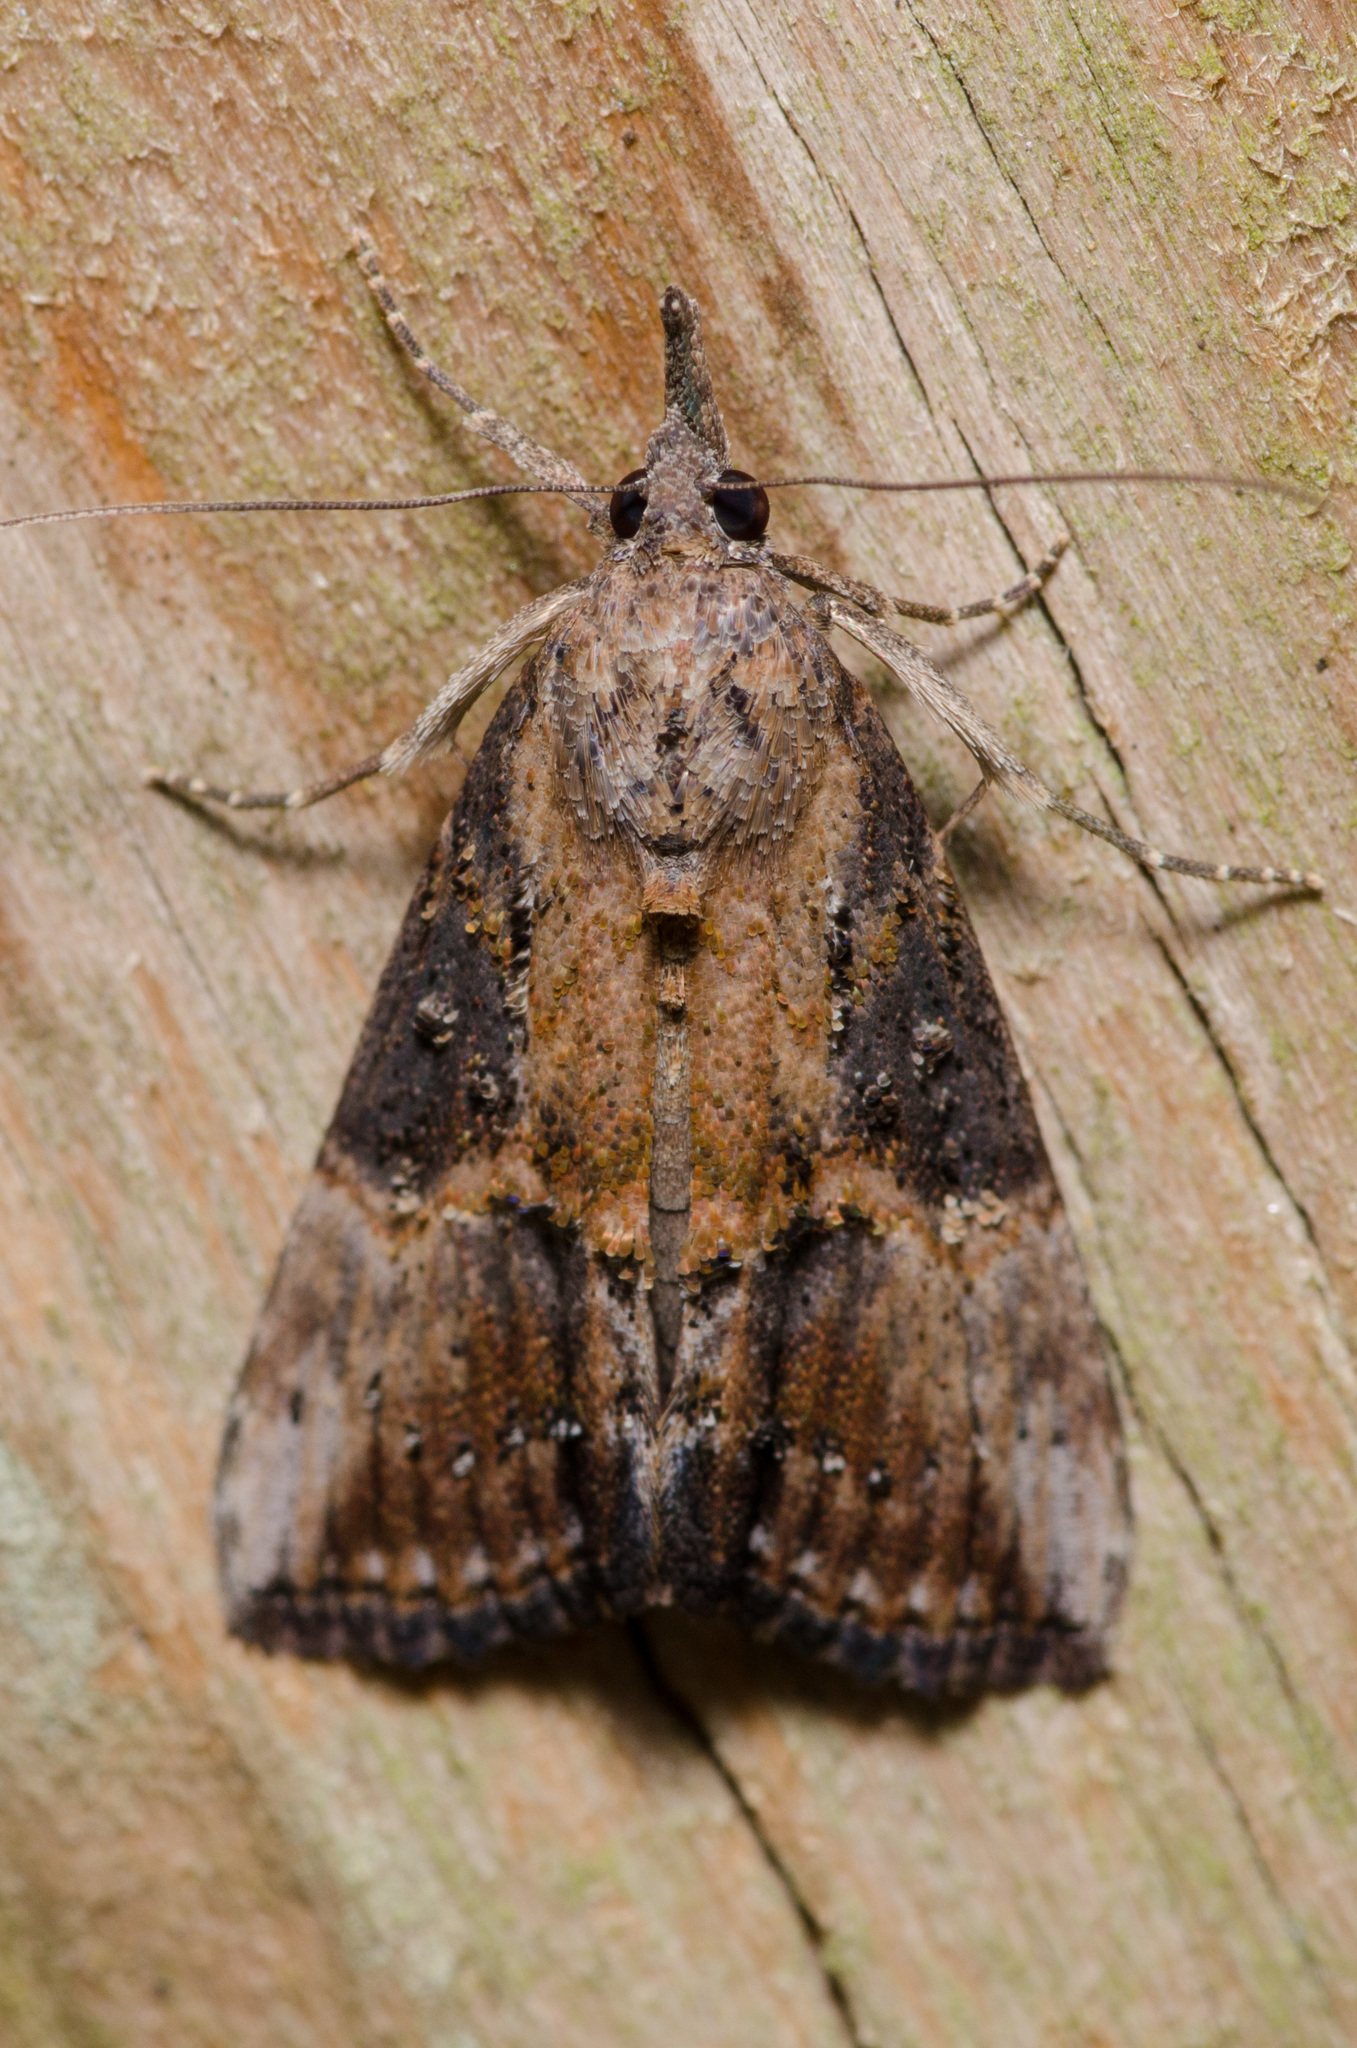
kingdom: Animalia
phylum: Arthropoda
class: Insecta
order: Lepidoptera
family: Erebidae
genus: Hypena
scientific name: Hypena scabra
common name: Green cloverworm
